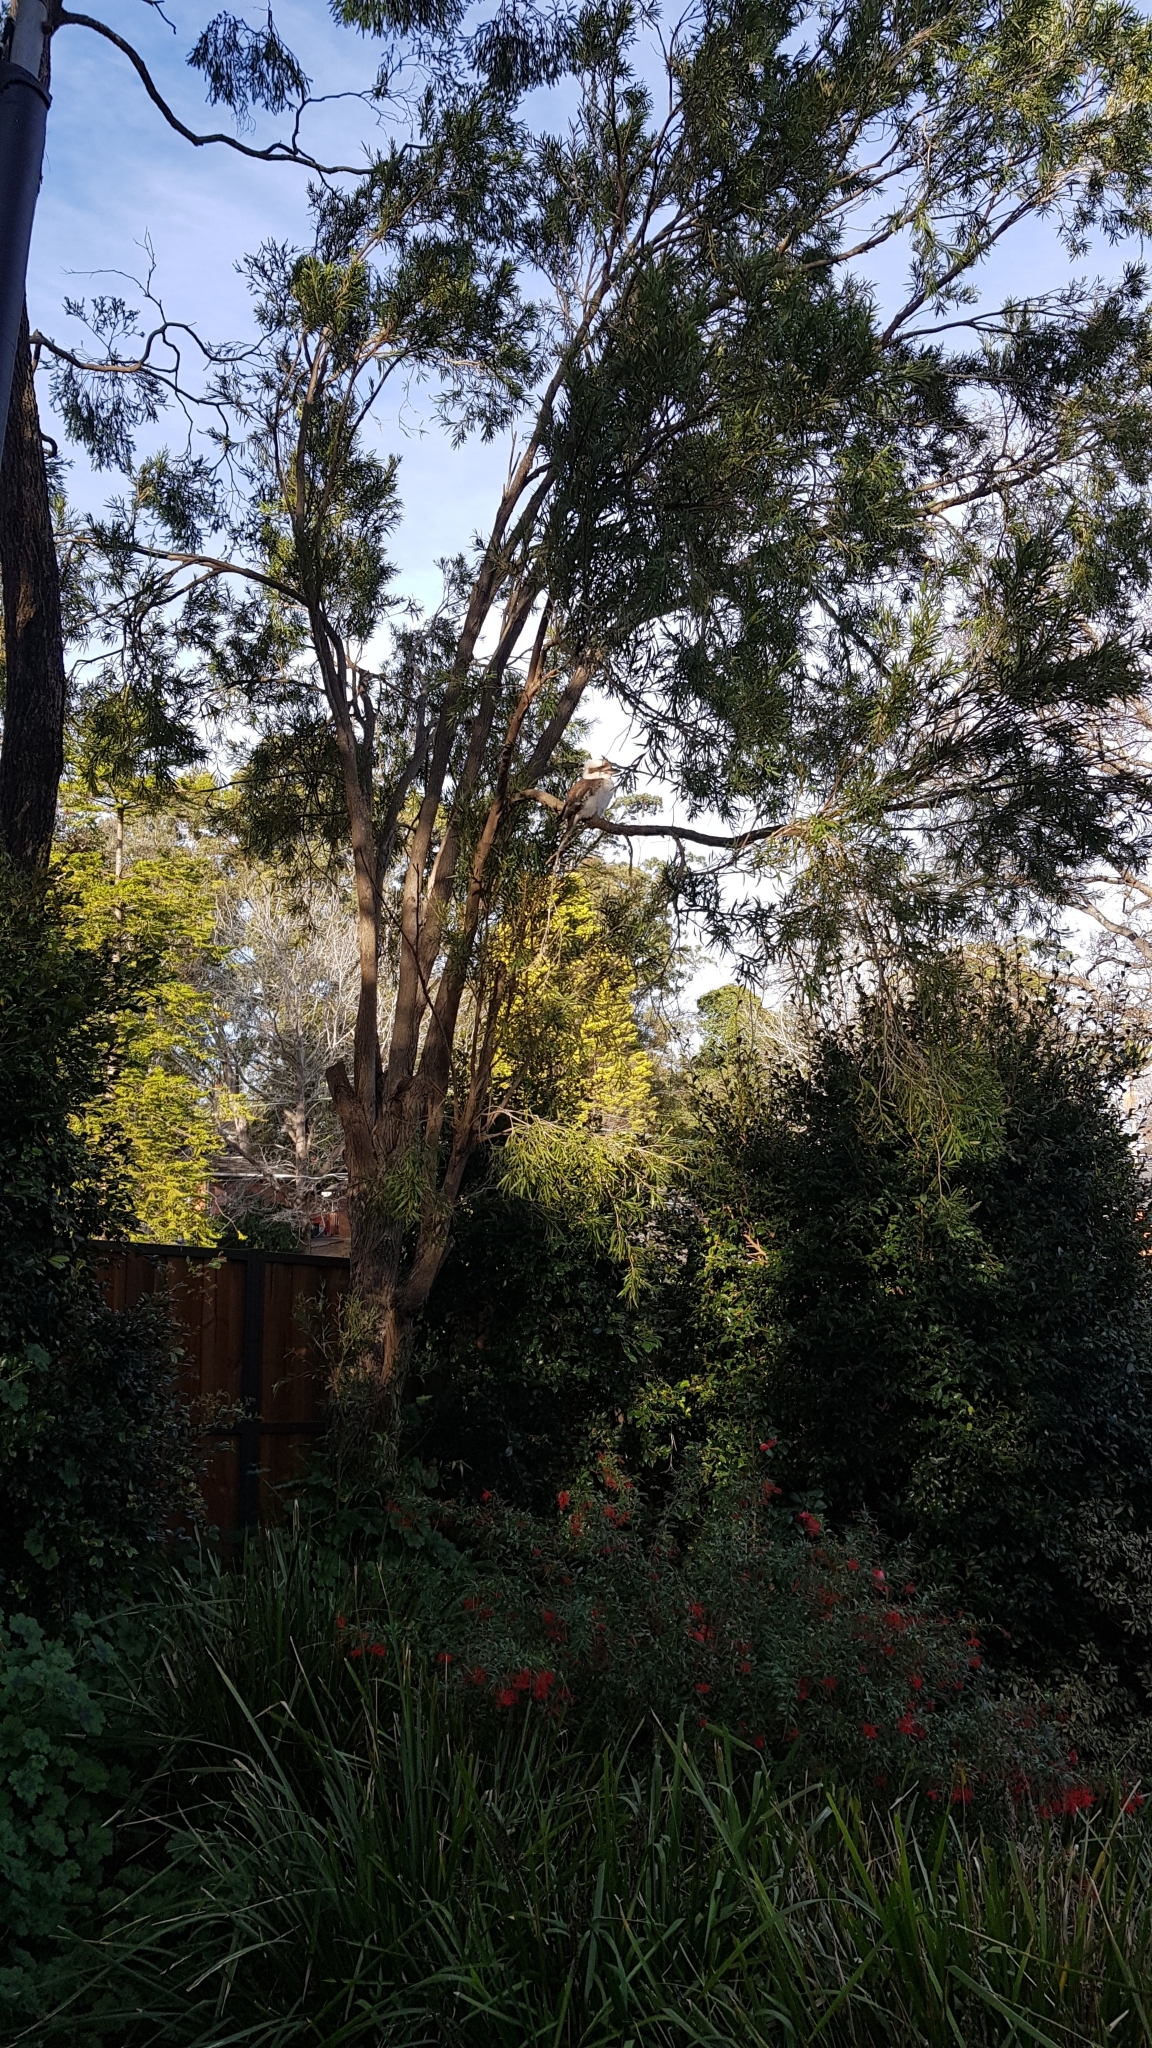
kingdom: Animalia
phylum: Chordata
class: Aves
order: Coraciiformes
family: Alcedinidae
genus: Dacelo
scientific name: Dacelo novaeguineae
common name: Laughing kookaburra
